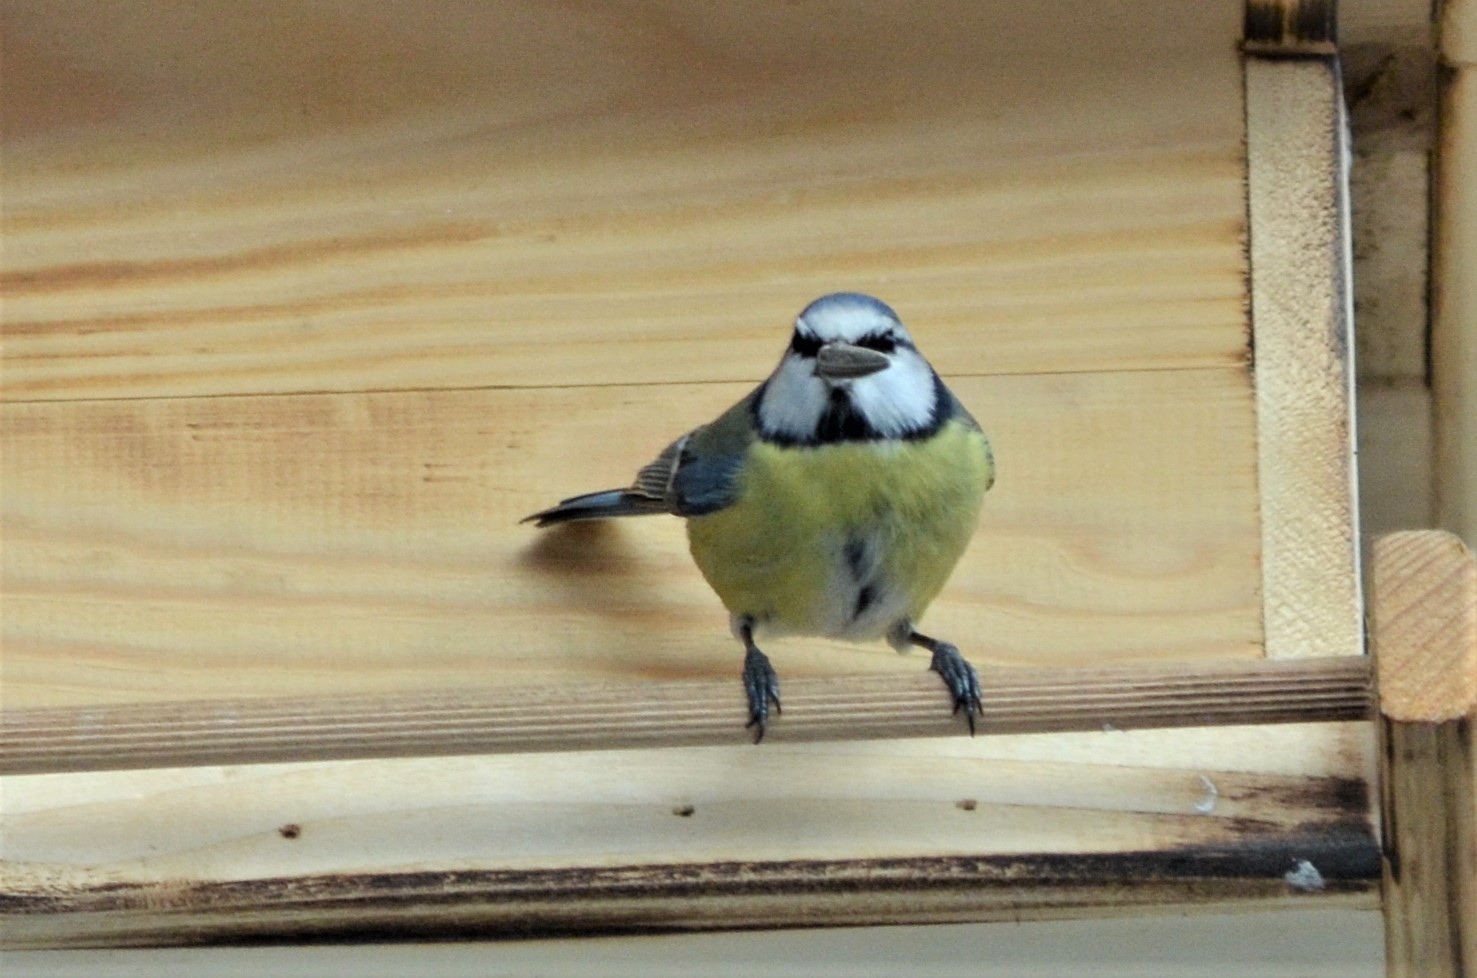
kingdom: Animalia
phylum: Chordata
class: Aves
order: Passeriformes
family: Paridae
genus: Cyanistes
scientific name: Cyanistes caeruleus
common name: Eurasian blue tit
